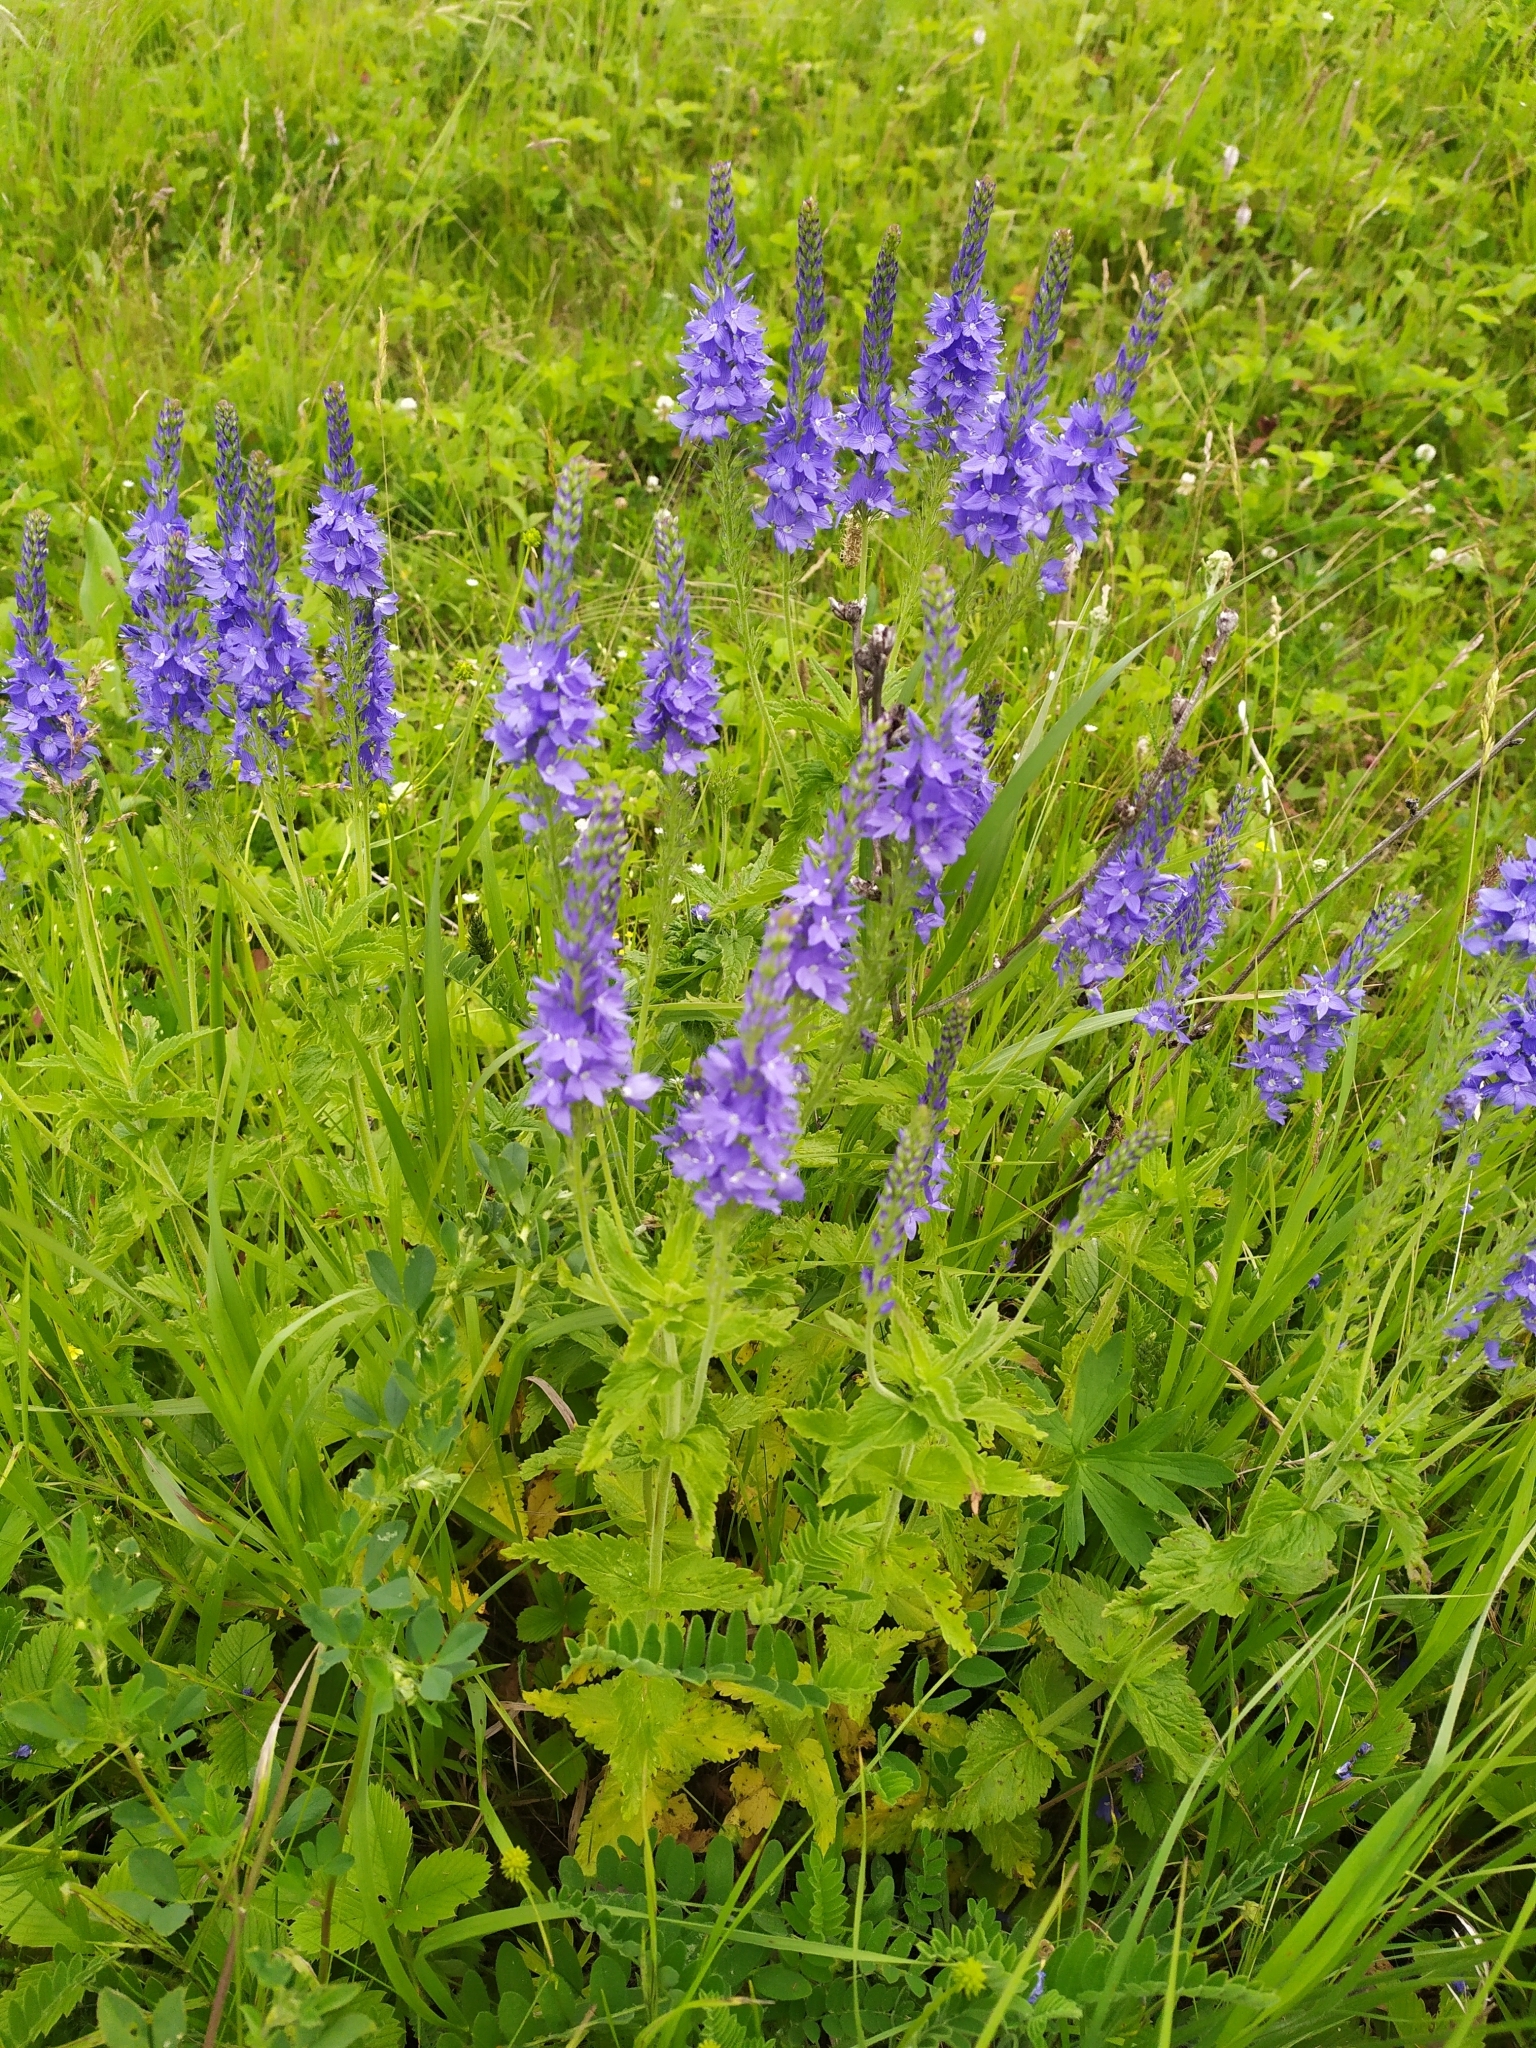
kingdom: Plantae
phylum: Tracheophyta
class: Magnoliopsida
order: Lamiales
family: Plantaginaceae
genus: Veronica
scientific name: Veronica teucrium
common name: Large speedwell
